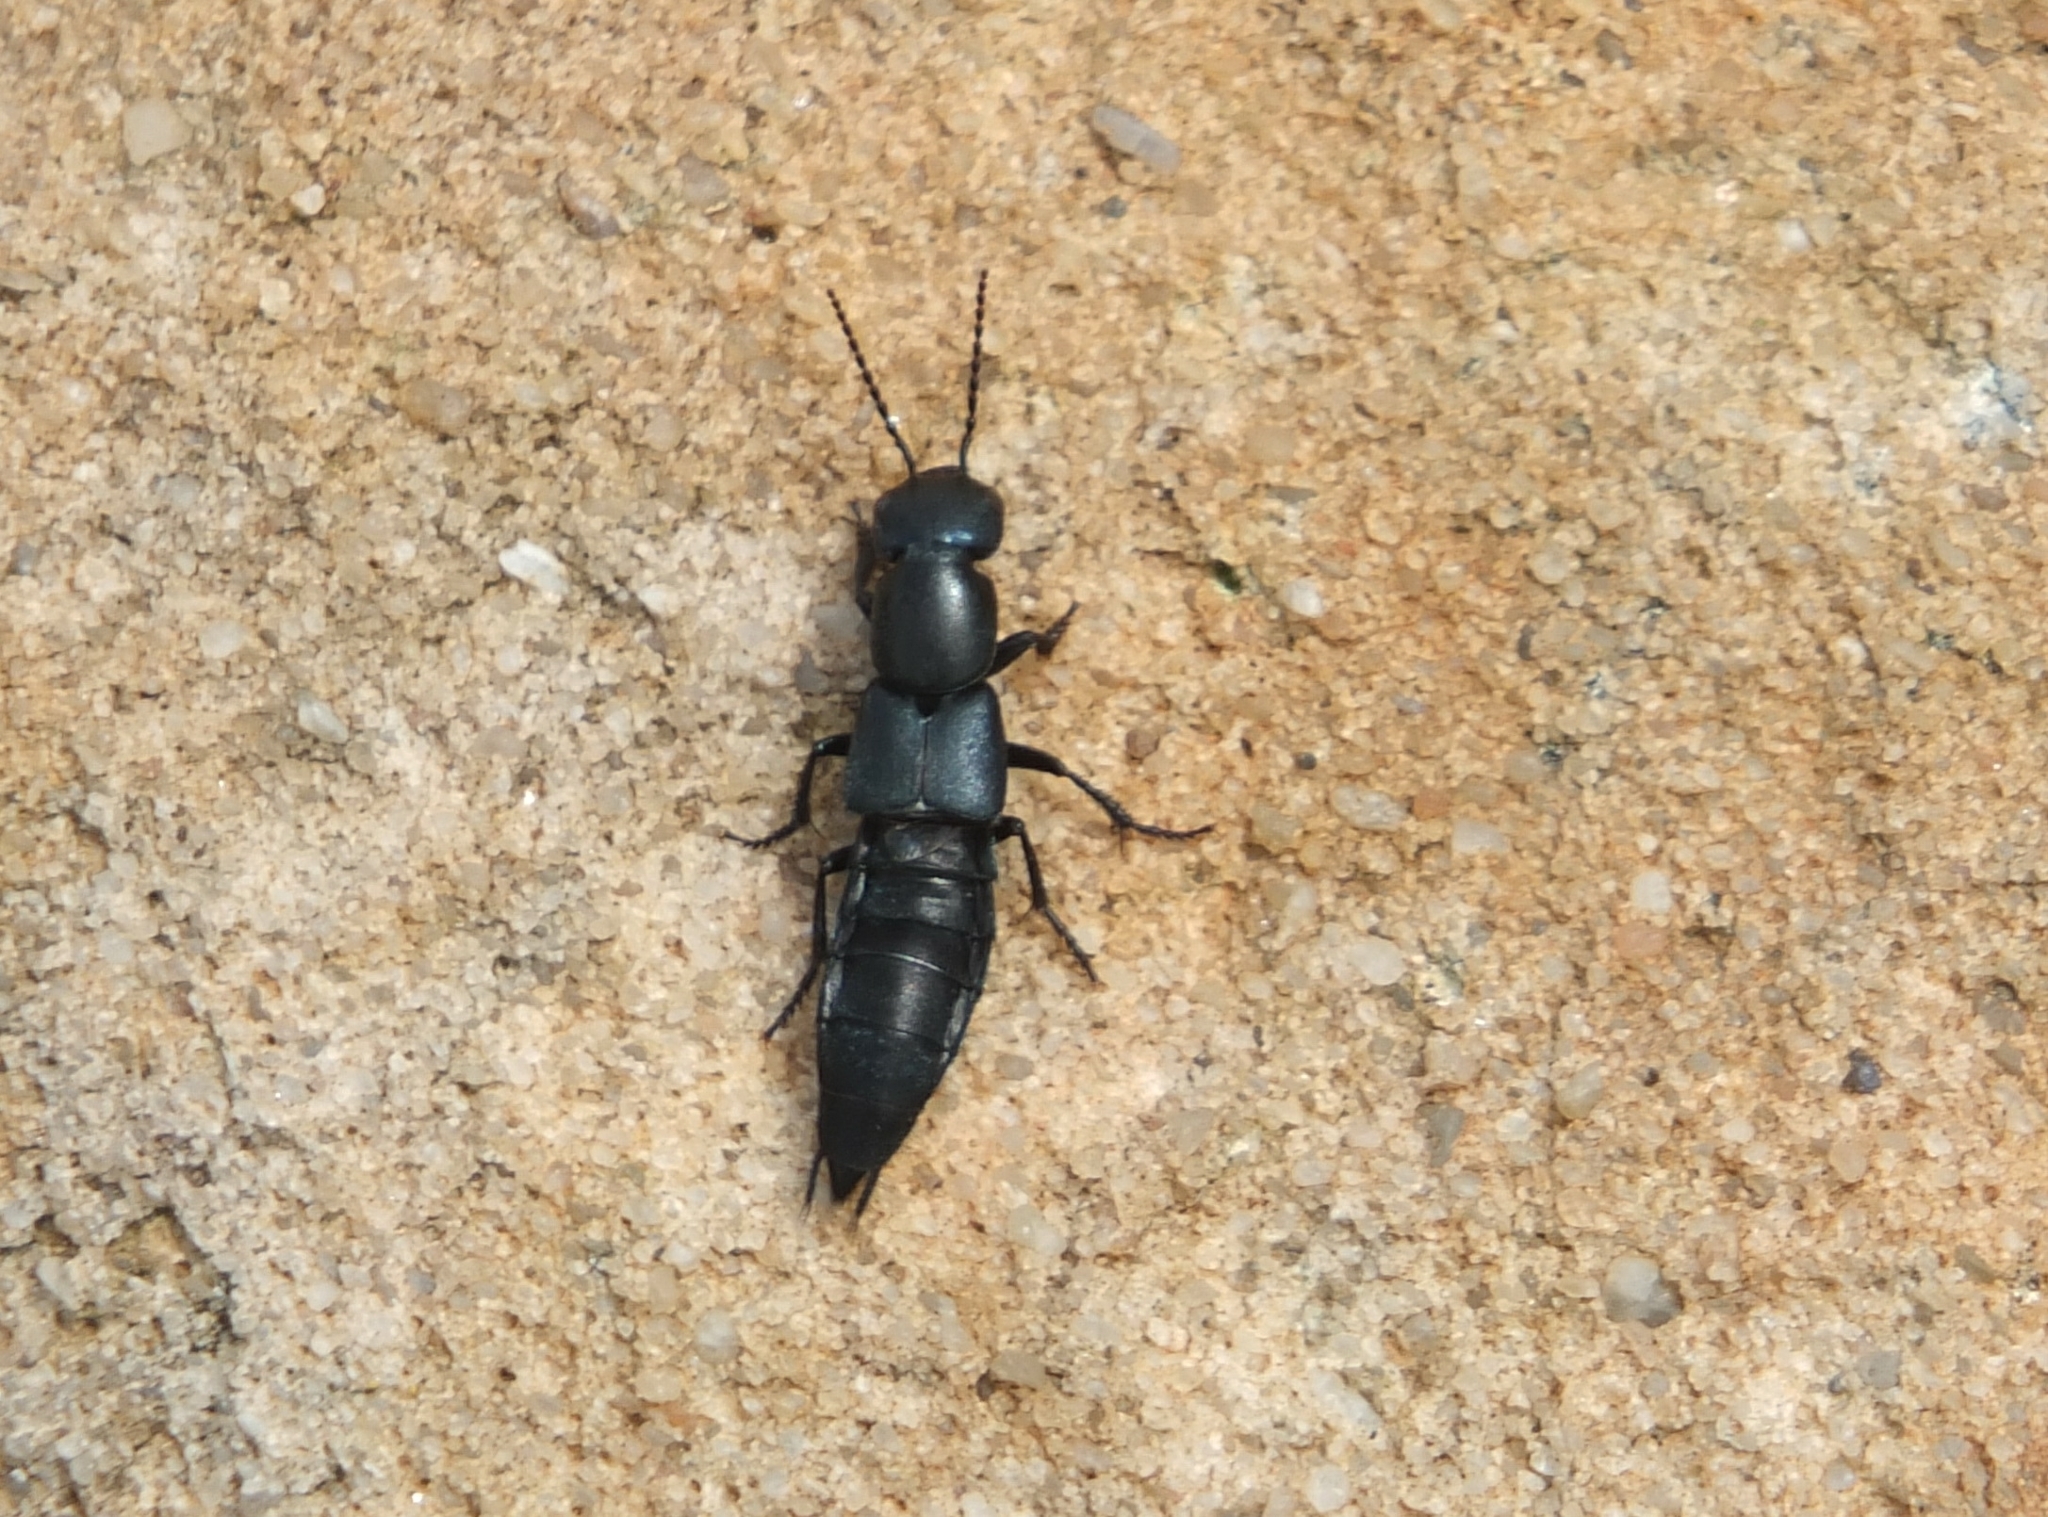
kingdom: Animalia
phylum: Arthropoda
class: Insecta
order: Coleoptera
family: Staphylinidae
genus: Ocypus
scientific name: Ocypus ophthalmicus
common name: Blue rove-beetle
